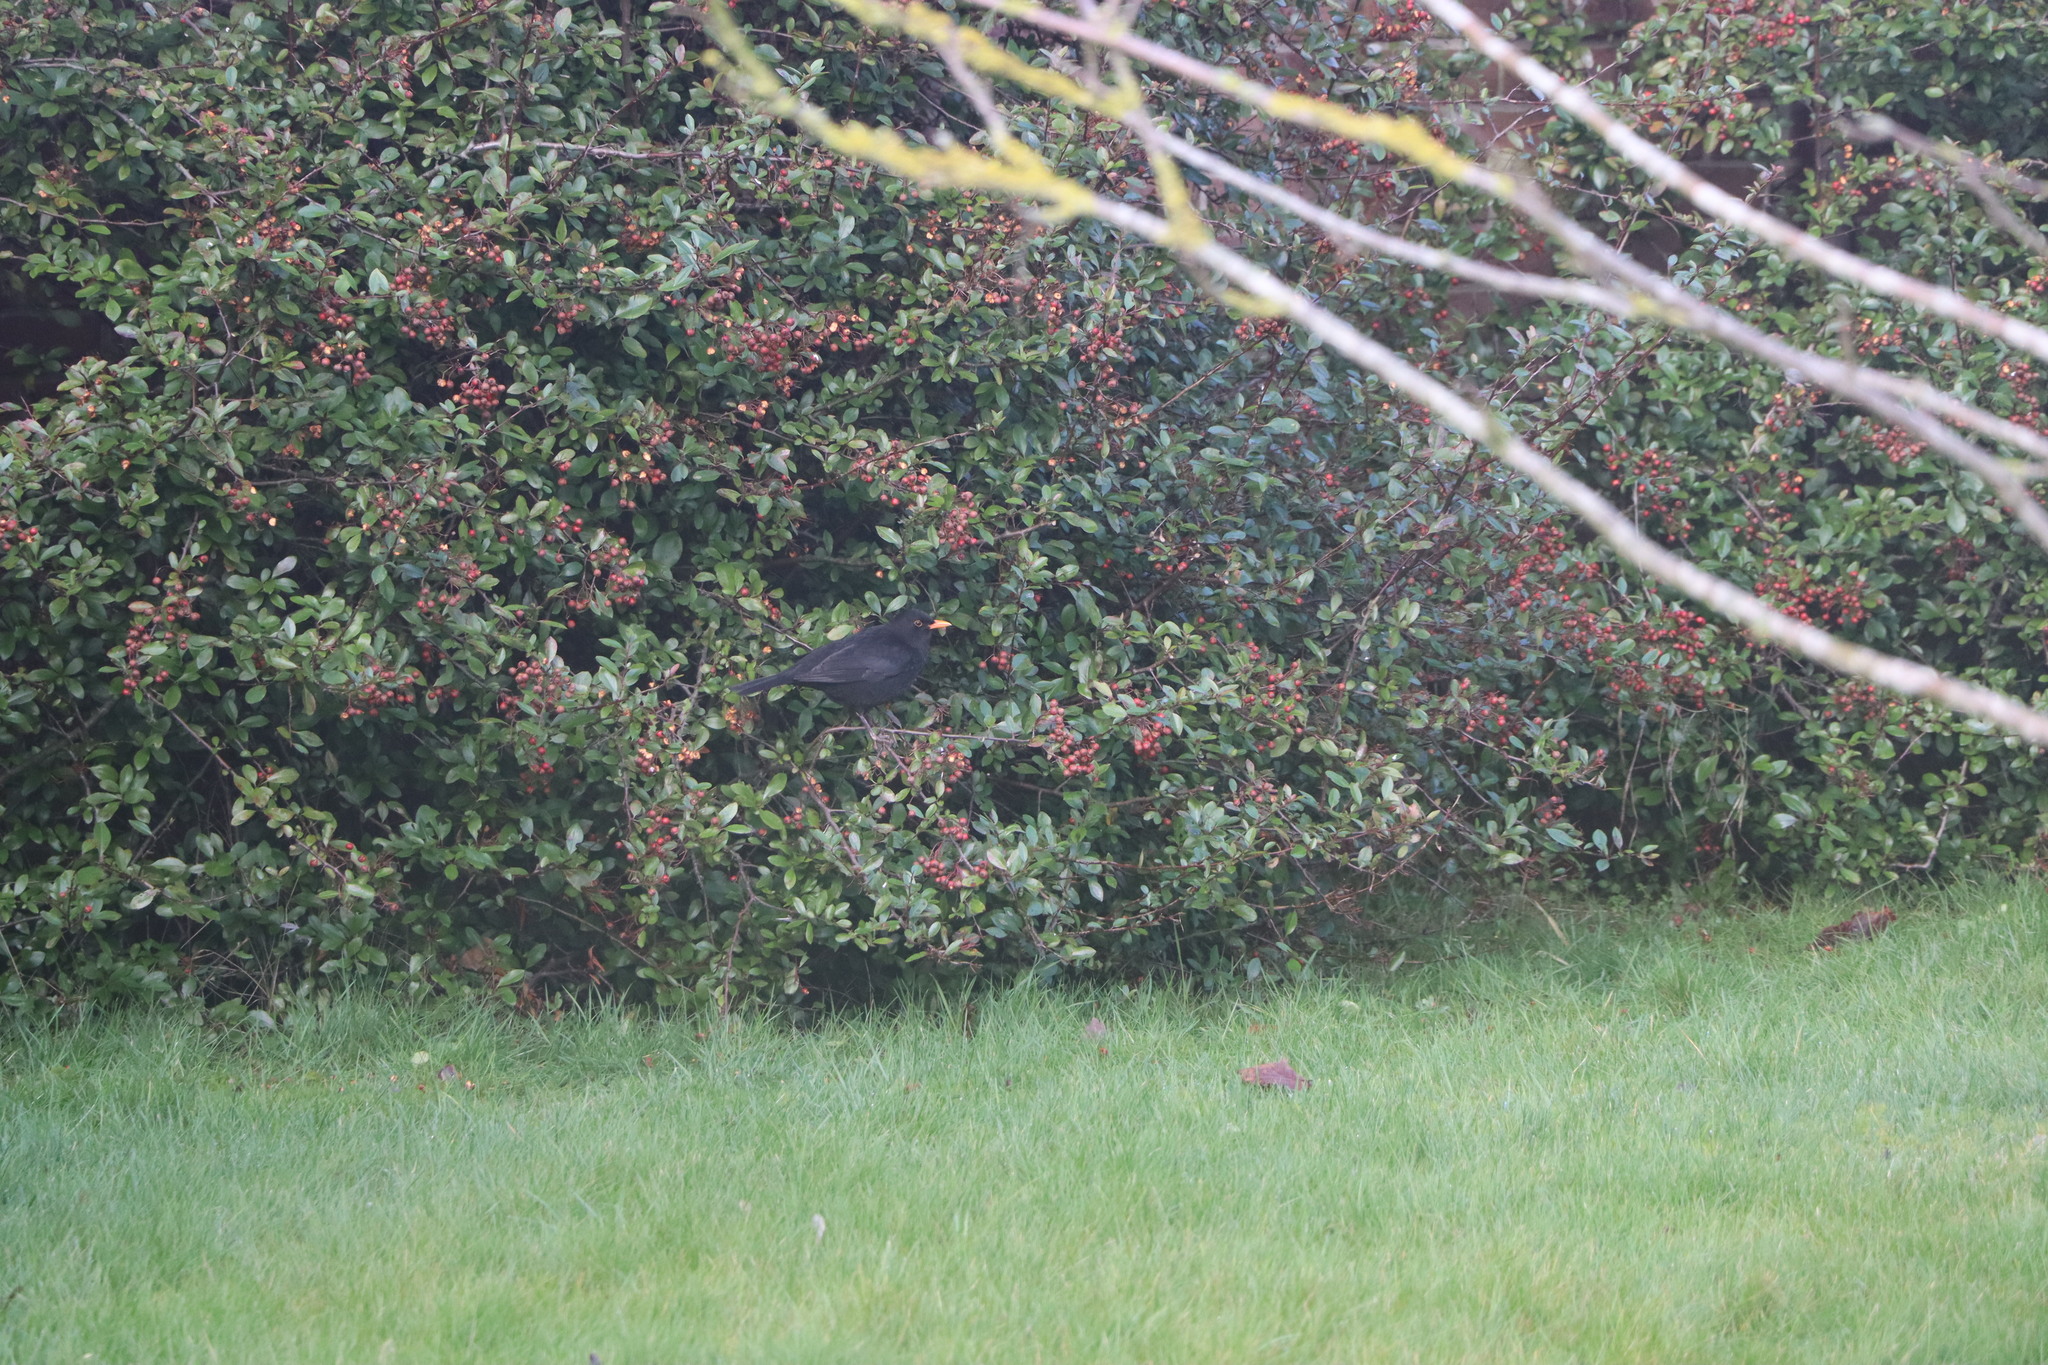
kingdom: Animalia
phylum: Chordata
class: Aves
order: Passeriformes
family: Turdidae
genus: Turdus
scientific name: Turdus merula
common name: Common blackbird
